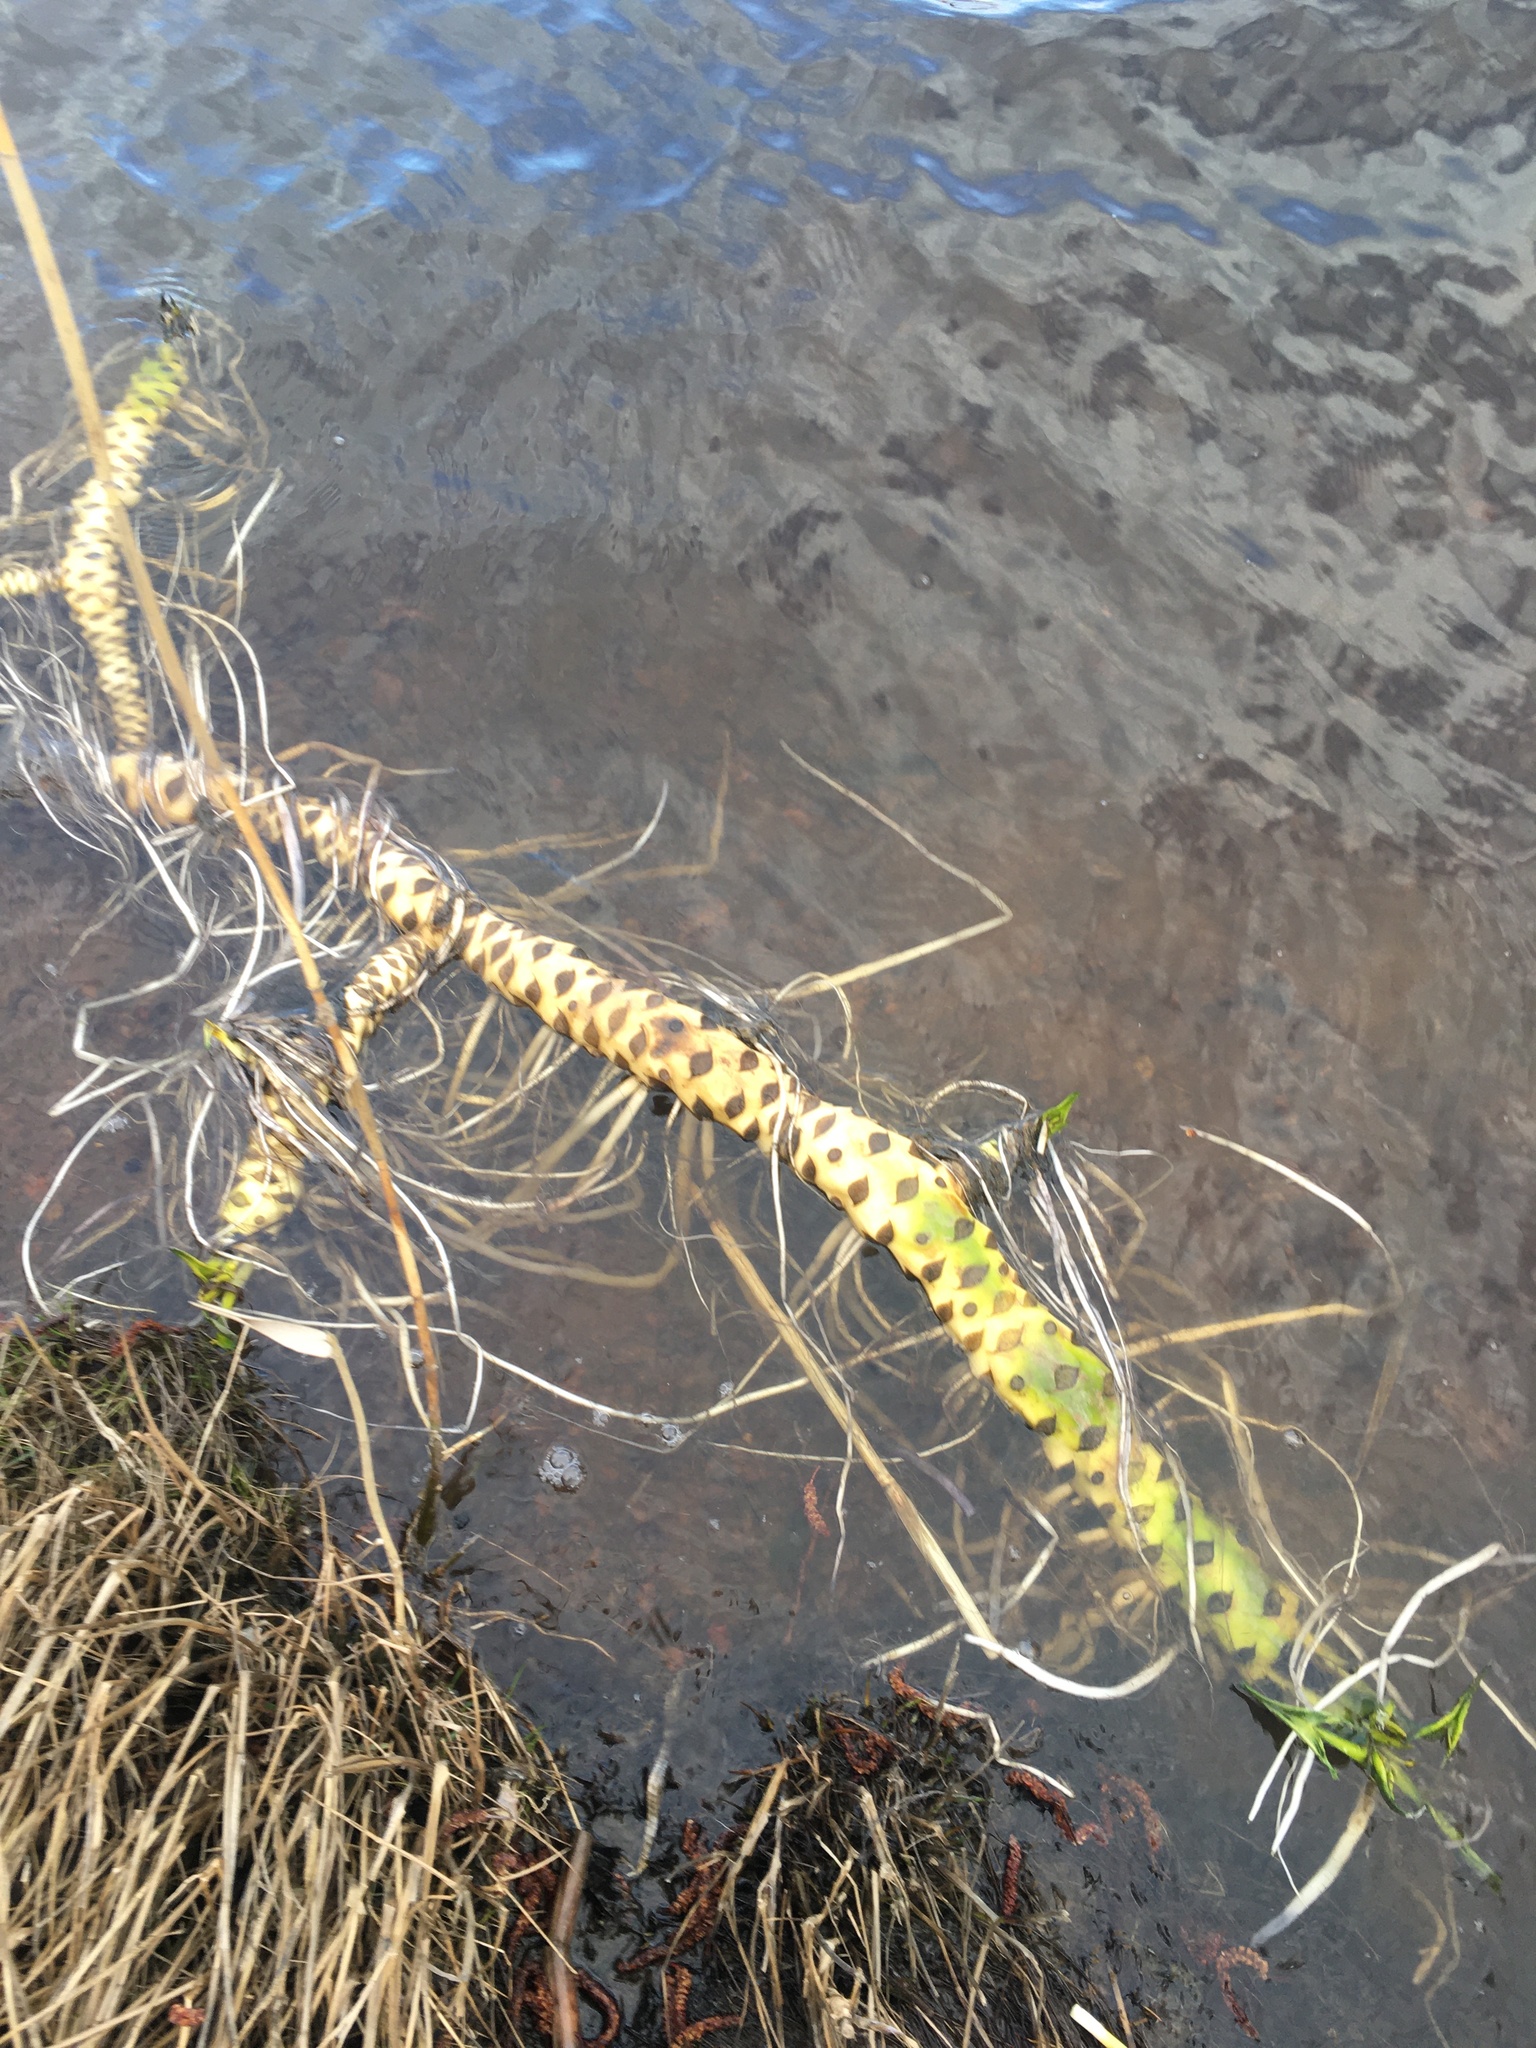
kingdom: Plantae
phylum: Tracheophyta
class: Magnoliopsida
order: Nymphaeales
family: Nymphaeaceae
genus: Nuphar
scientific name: Nuphar lutea
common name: Yellow water-lily
